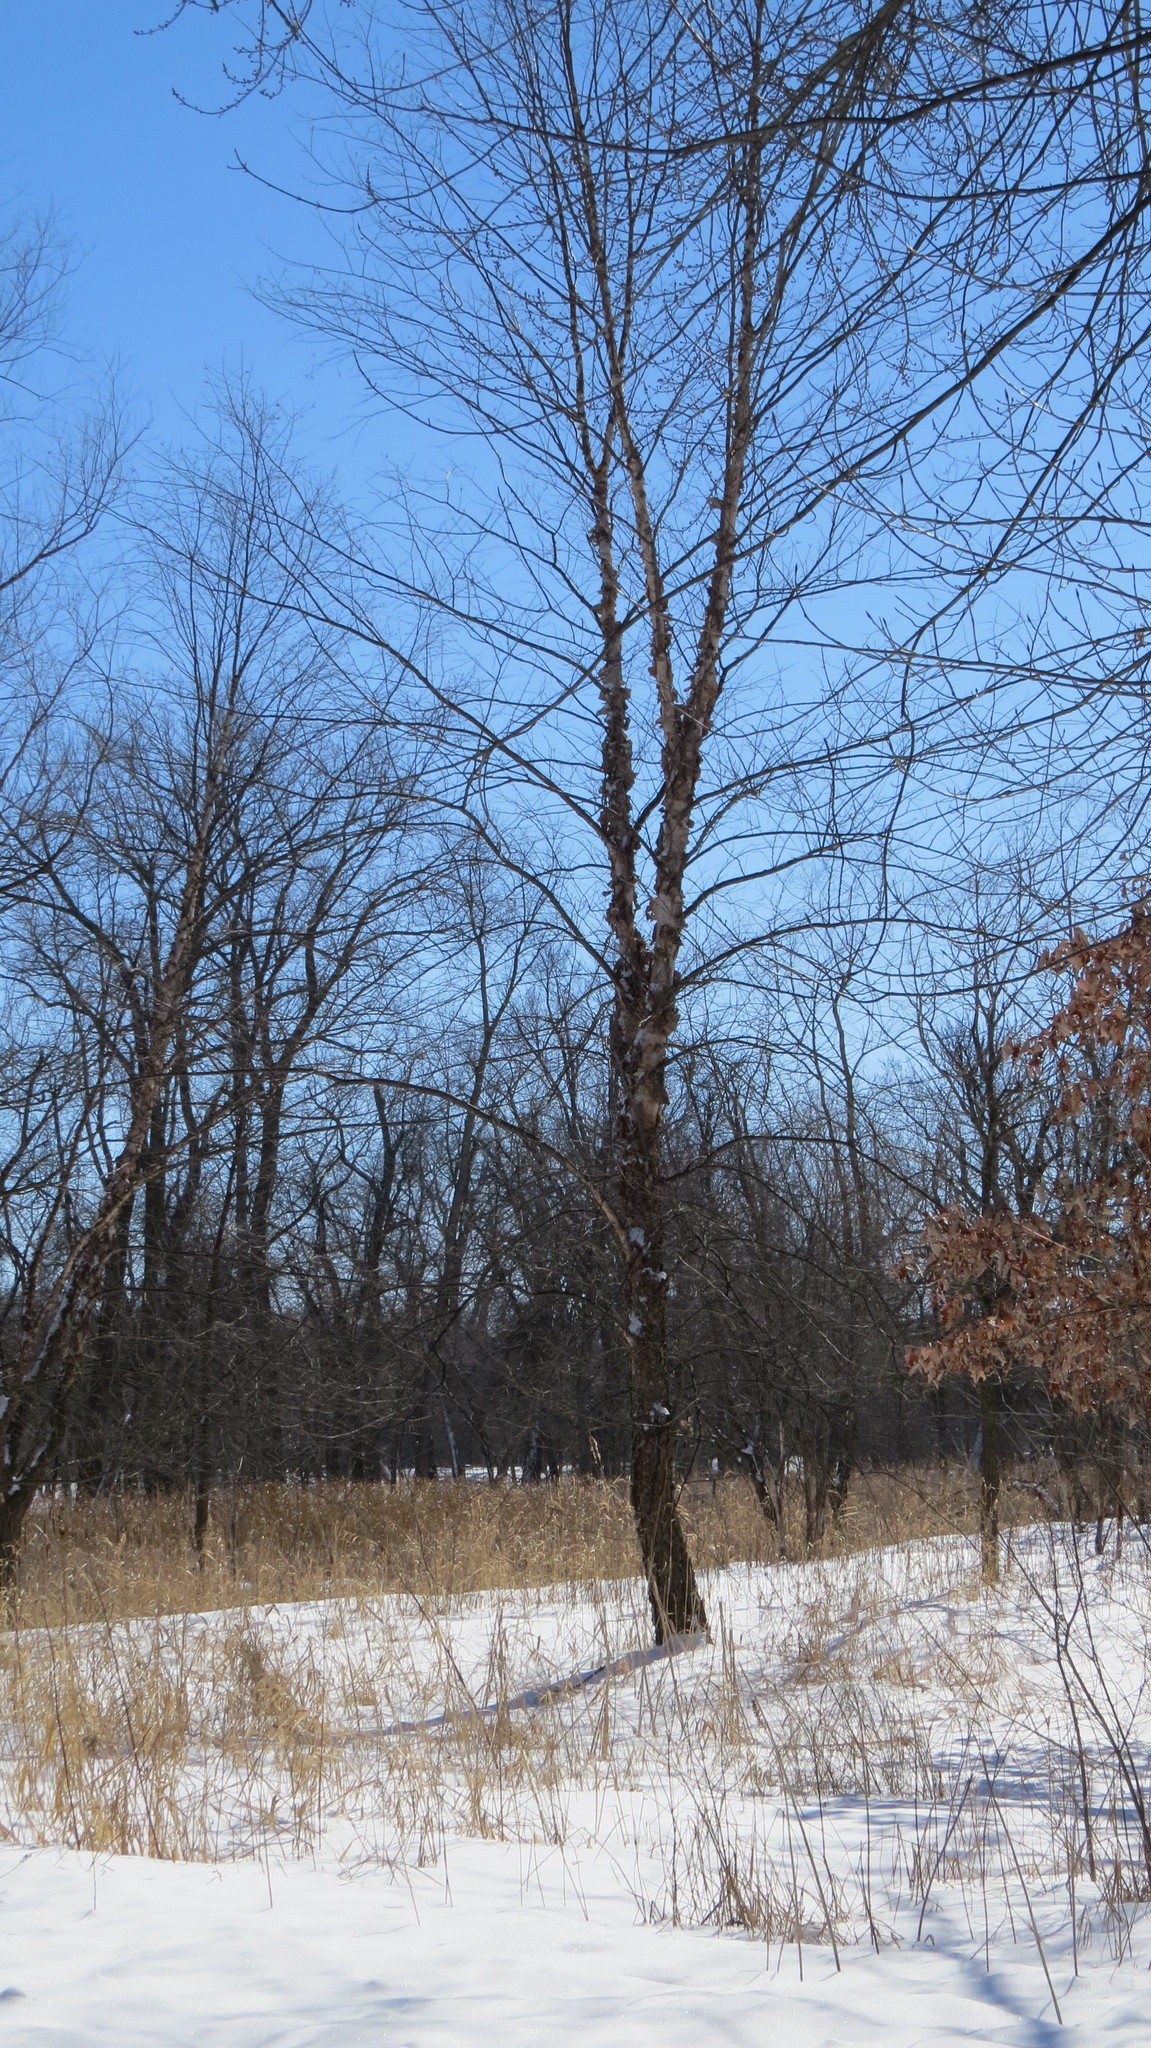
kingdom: Plantae
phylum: Tracheophyta
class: Magnoliopsida
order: Fagales
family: Betulaceae
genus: Betula
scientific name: Betula nigra
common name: Black birch
